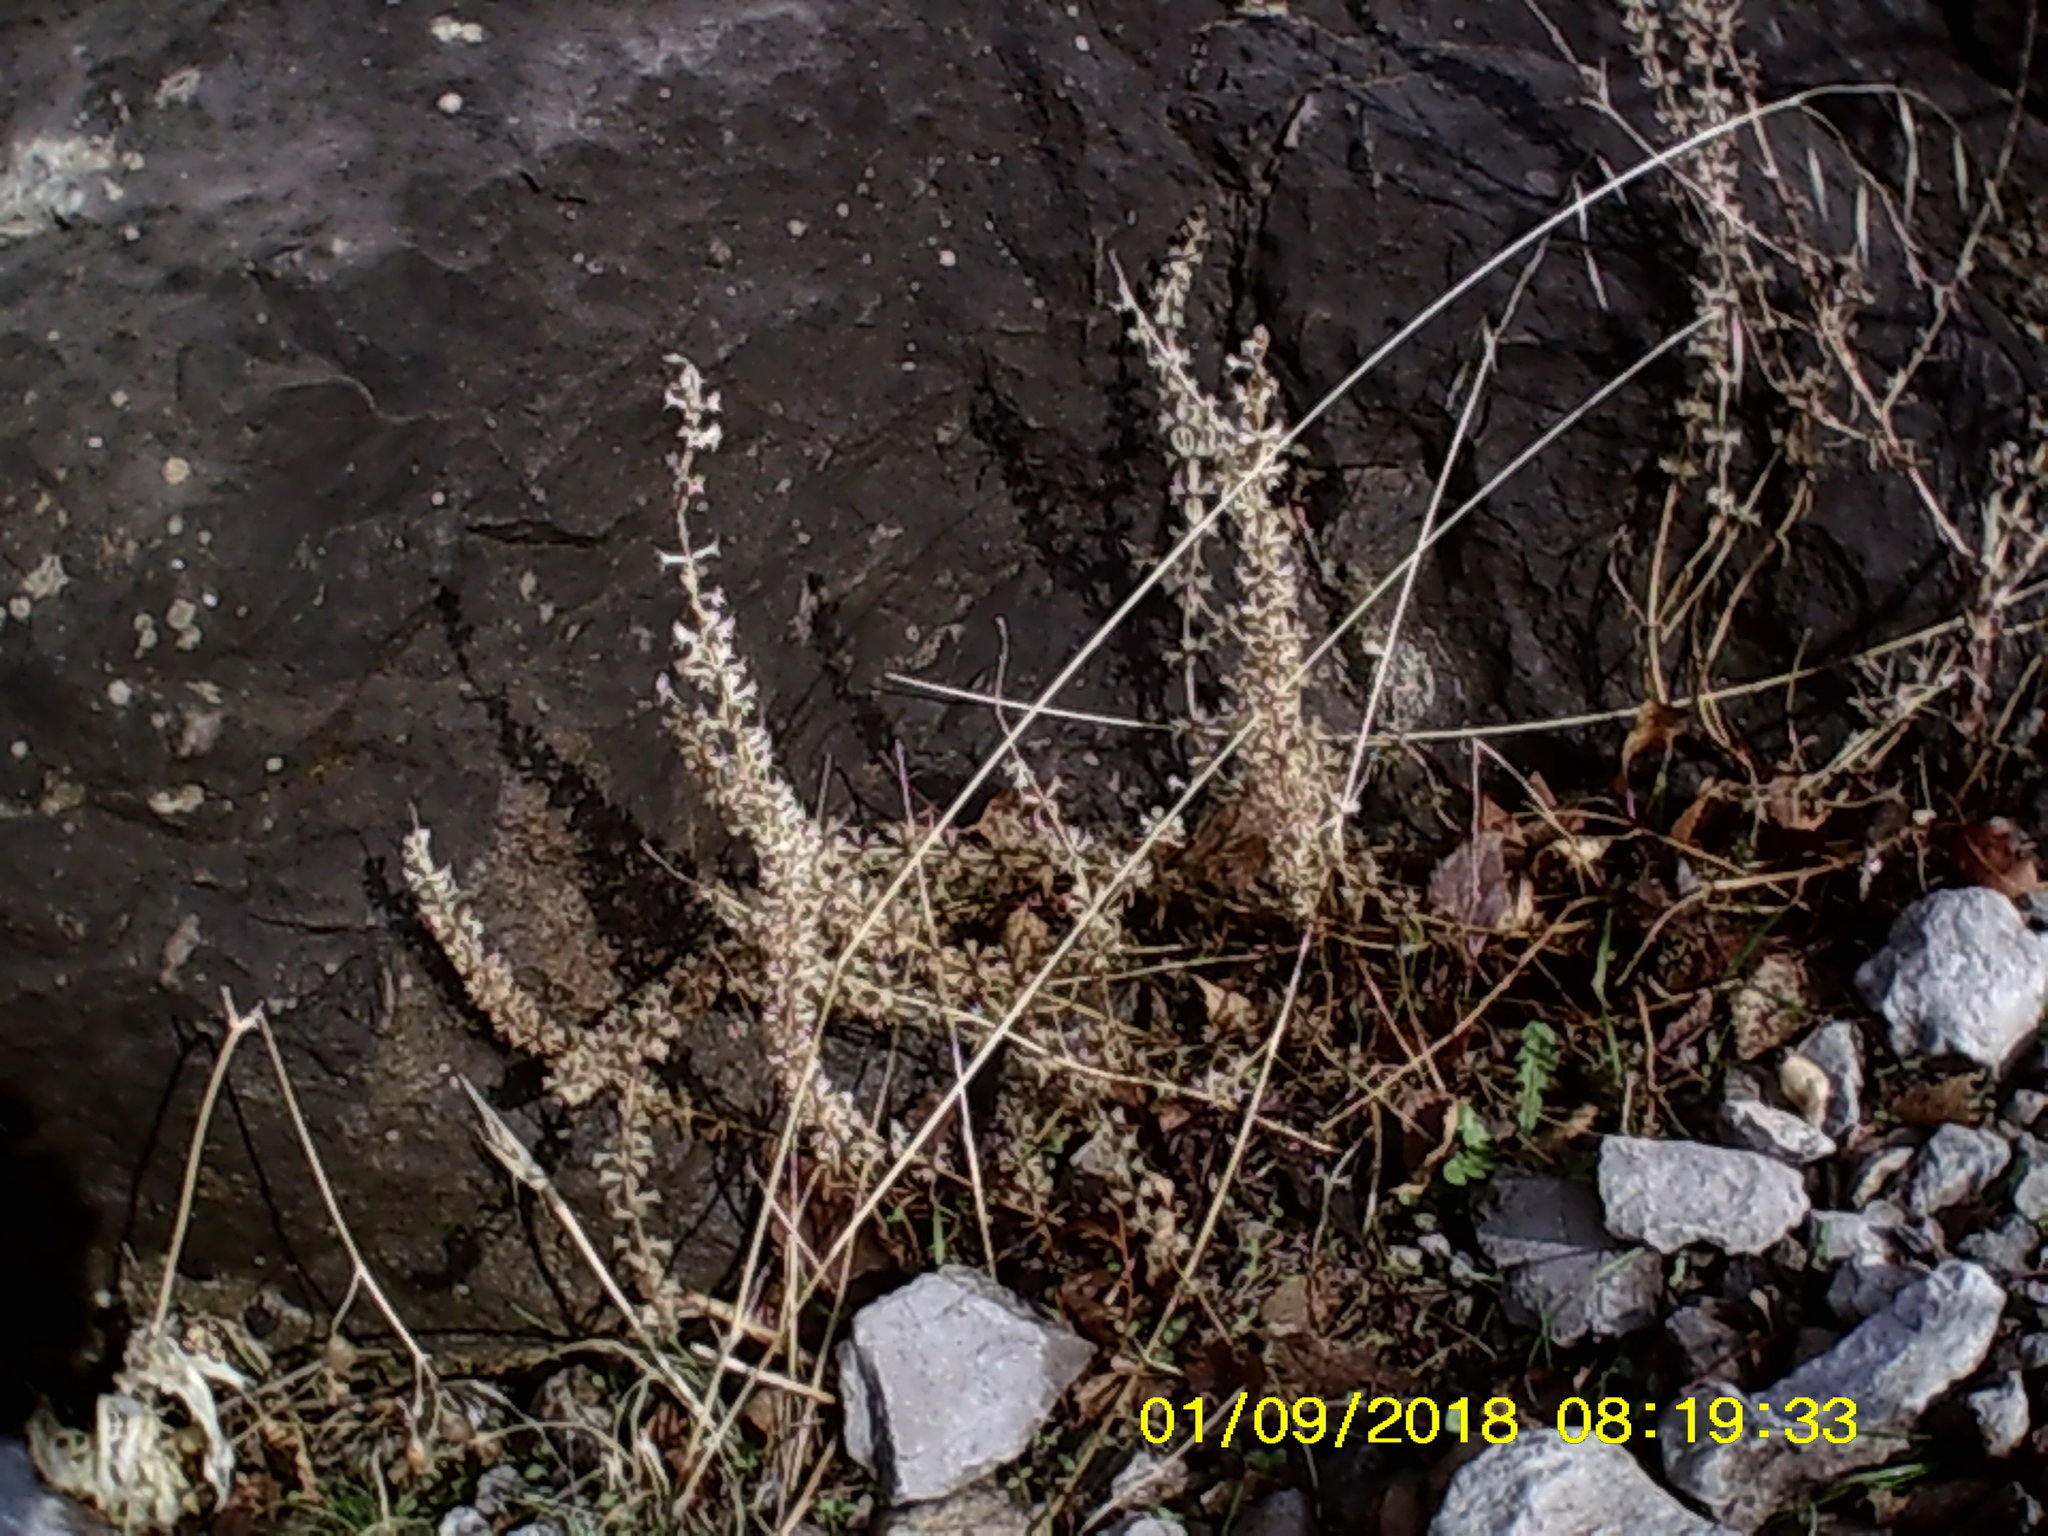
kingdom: Plantae
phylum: Tracheophyta
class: Magnoliopsida
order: Lamiales
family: Lamiaceae
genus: Sideritis
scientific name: Sideritis montana
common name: Mountain ironwort
